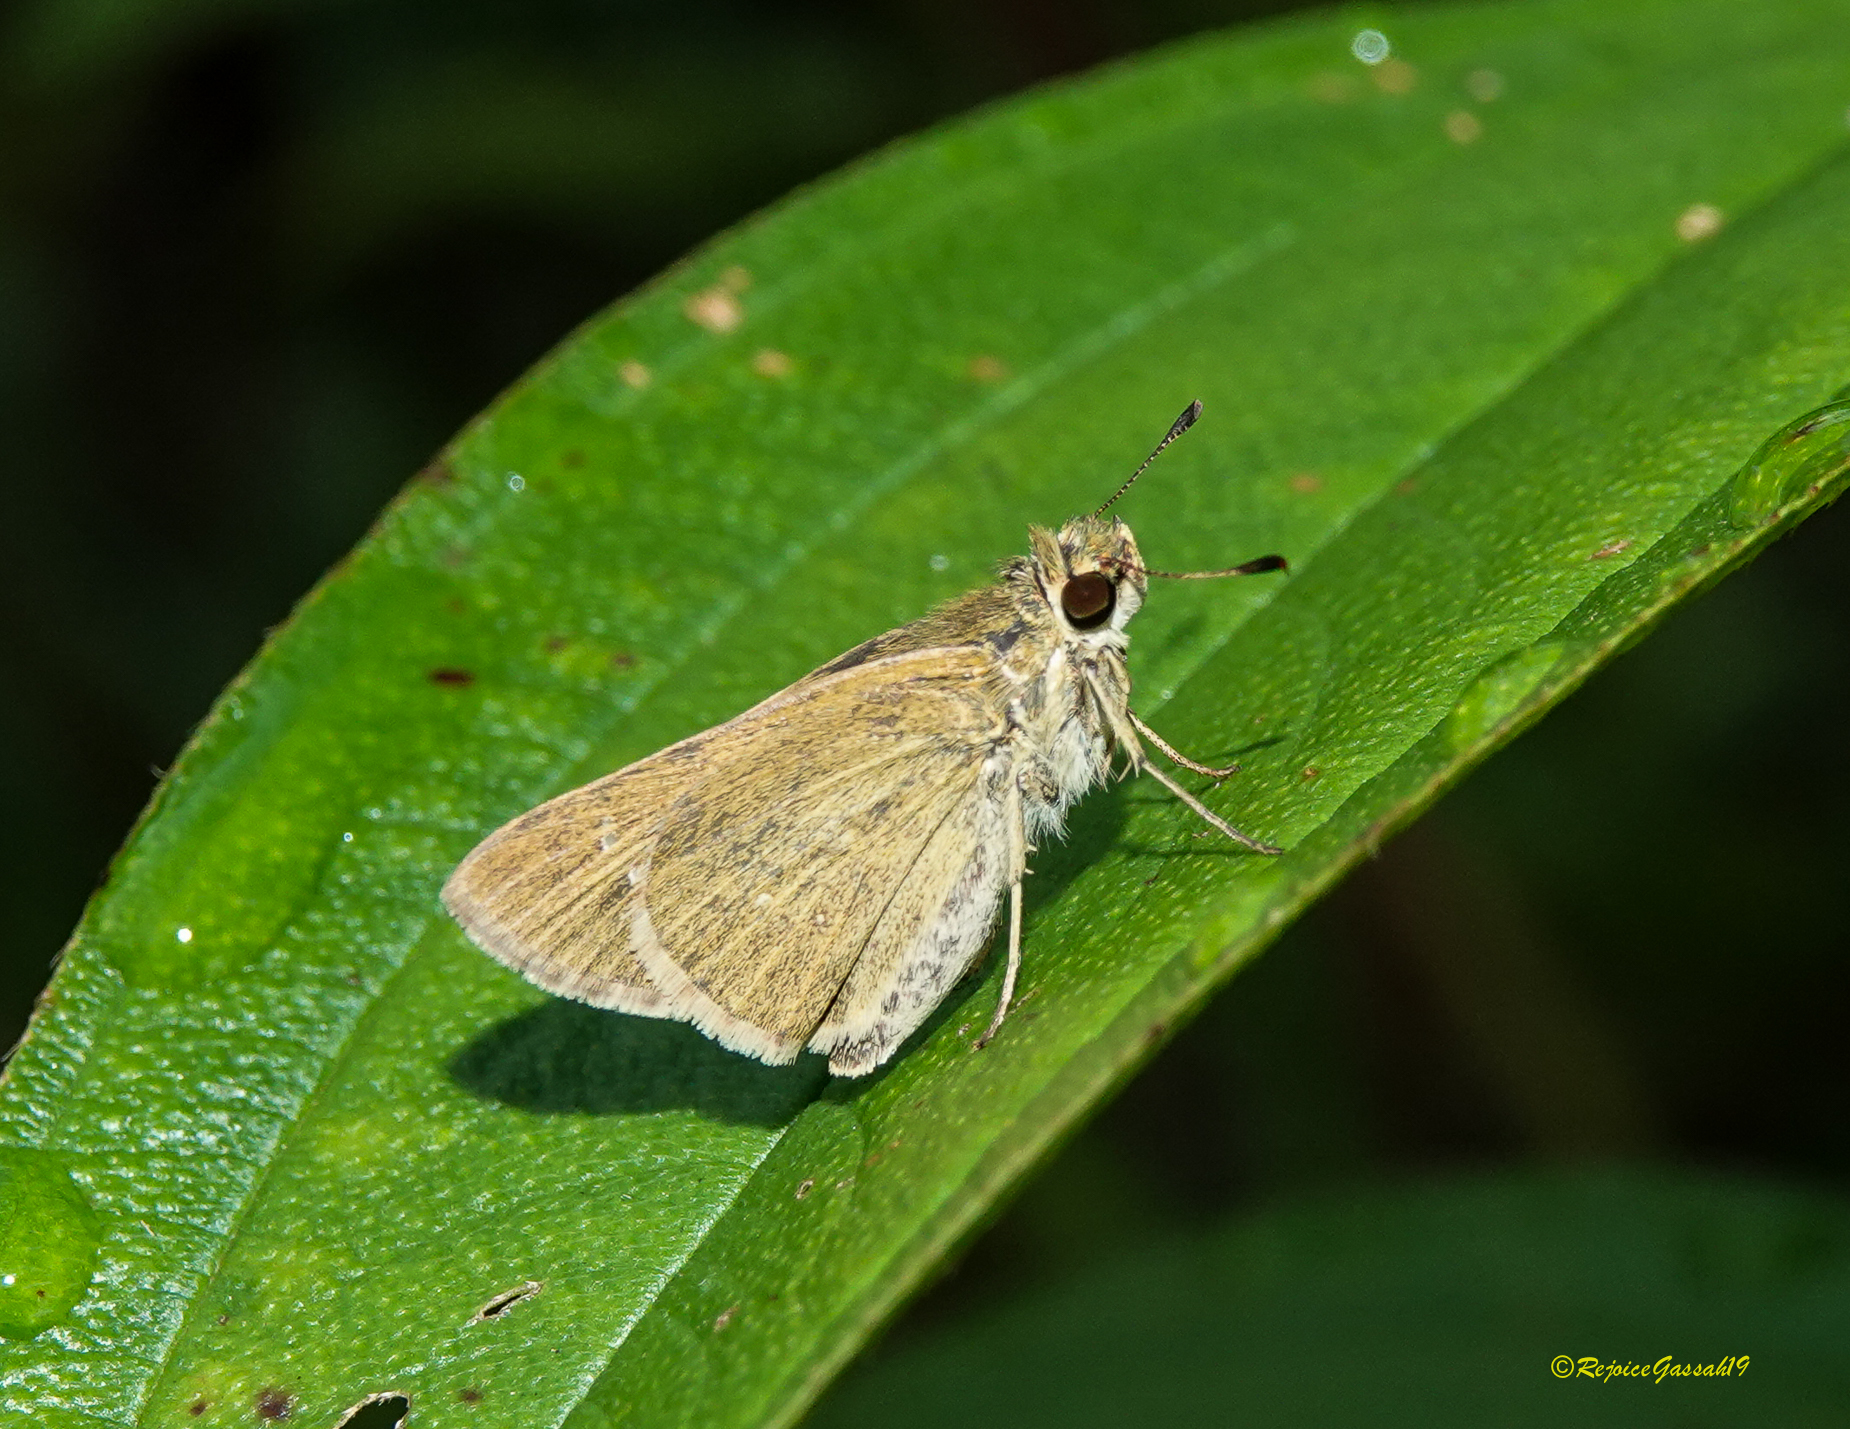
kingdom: Animalia
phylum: Arthropoda
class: Insecta
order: Lepidoptera
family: Hesperiidae
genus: Parnara
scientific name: Parnara naso
